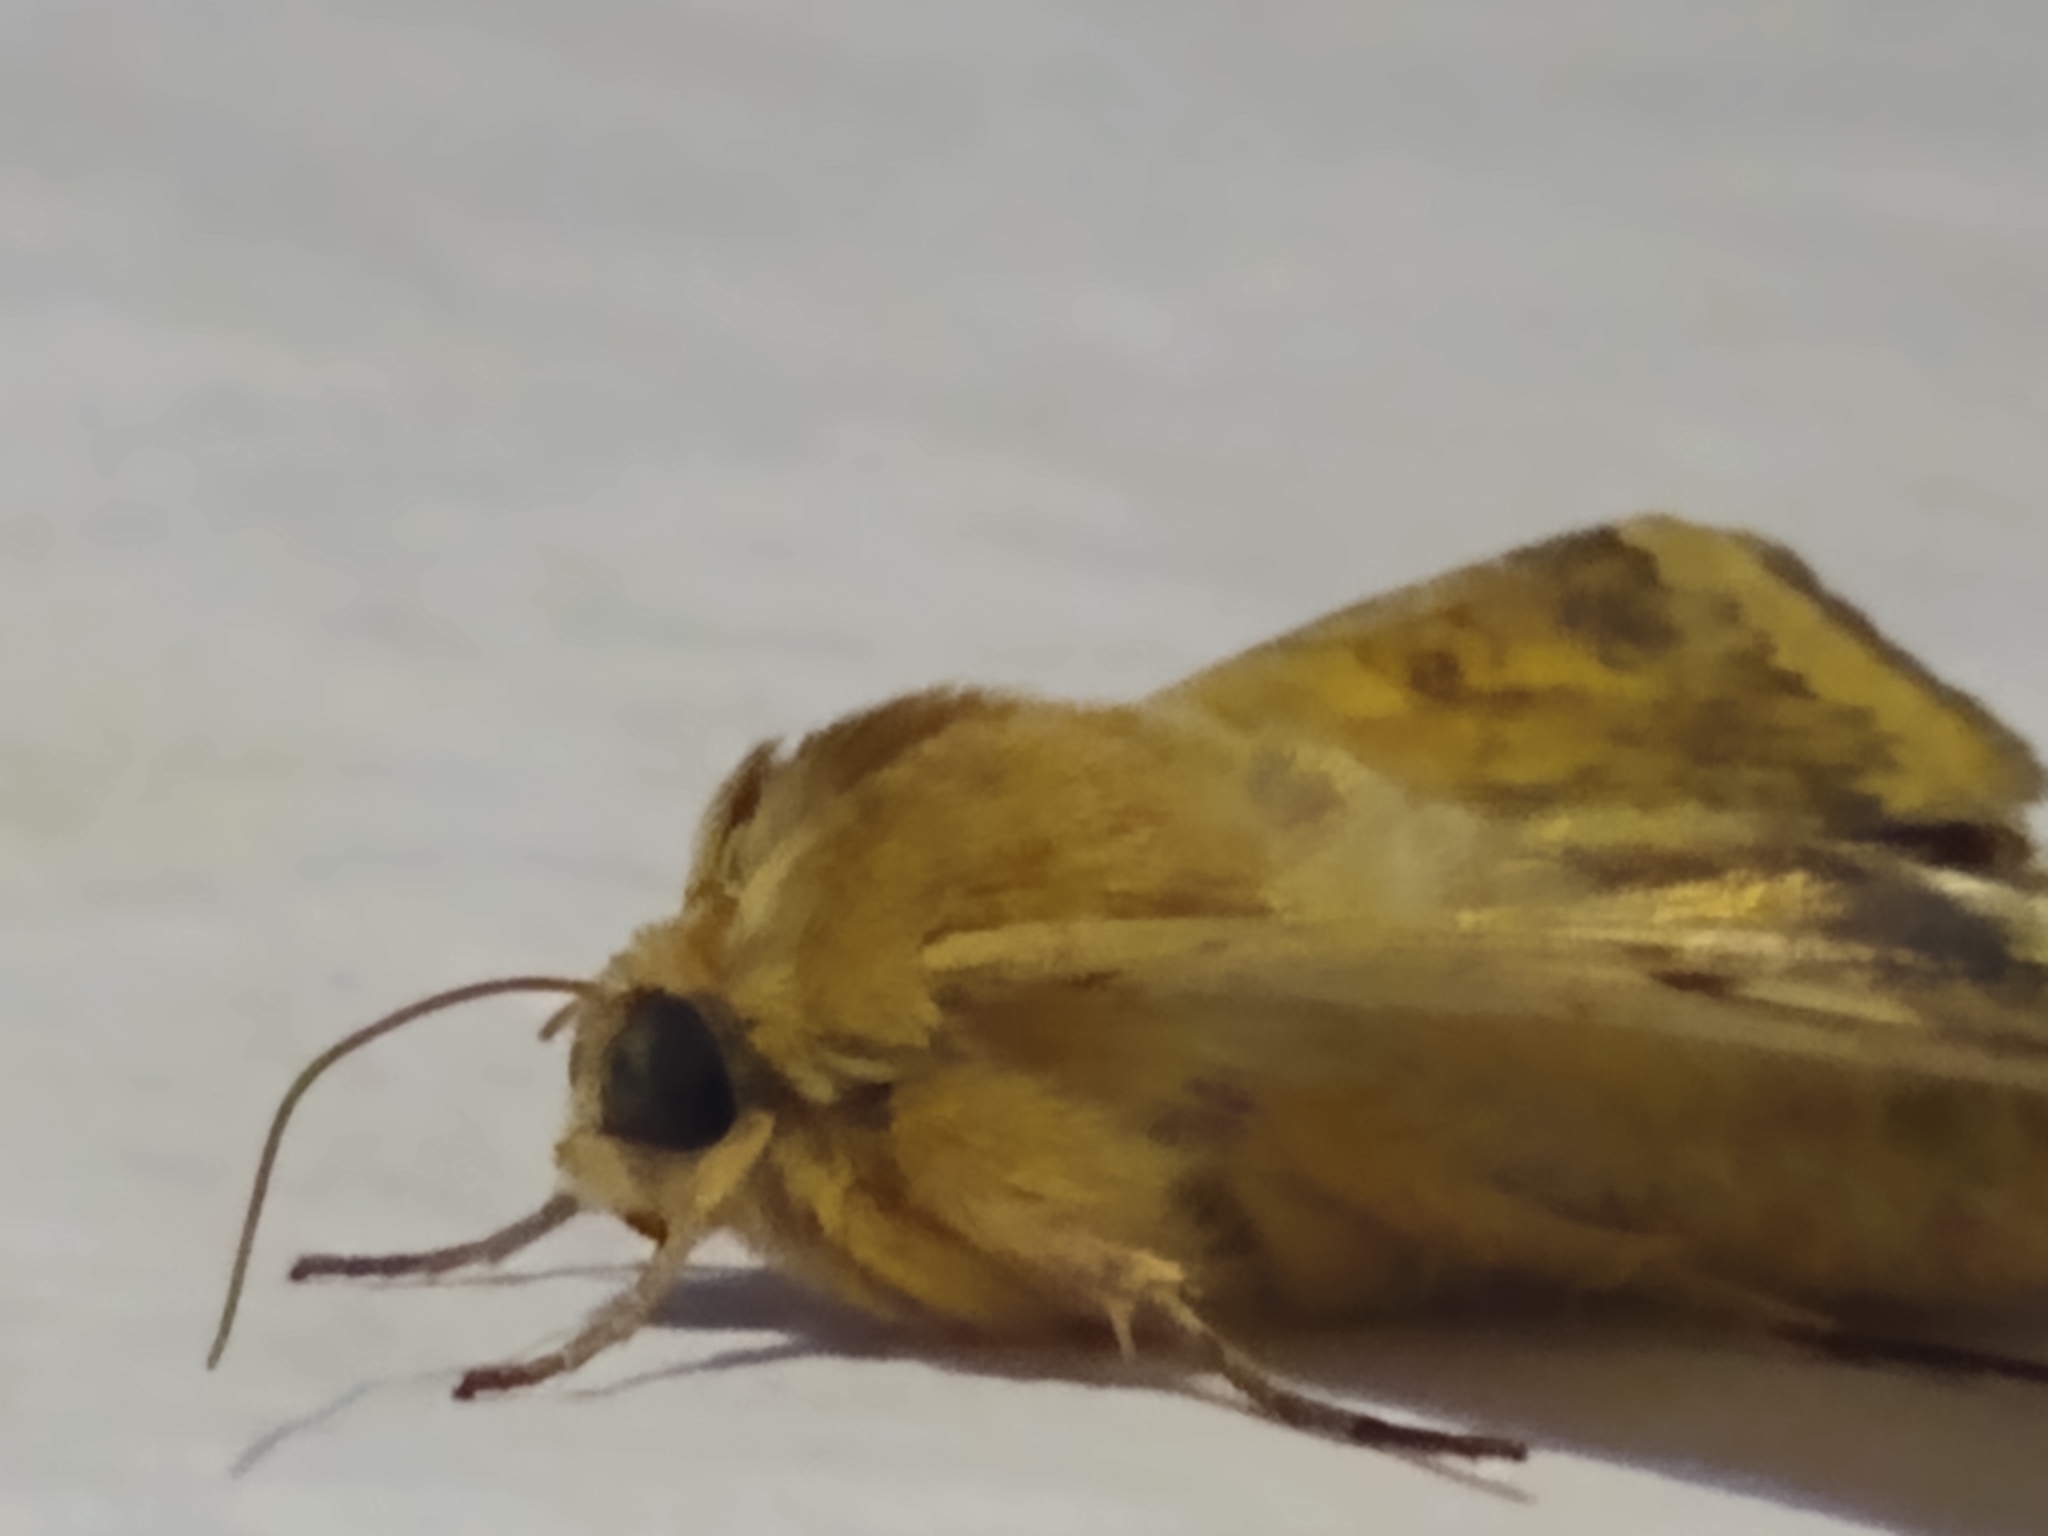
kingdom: Animalia
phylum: Arthropoda
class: Insecta
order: Lepidoptera
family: Noctuidae
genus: Helicoverpa
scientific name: Helicoverpa
